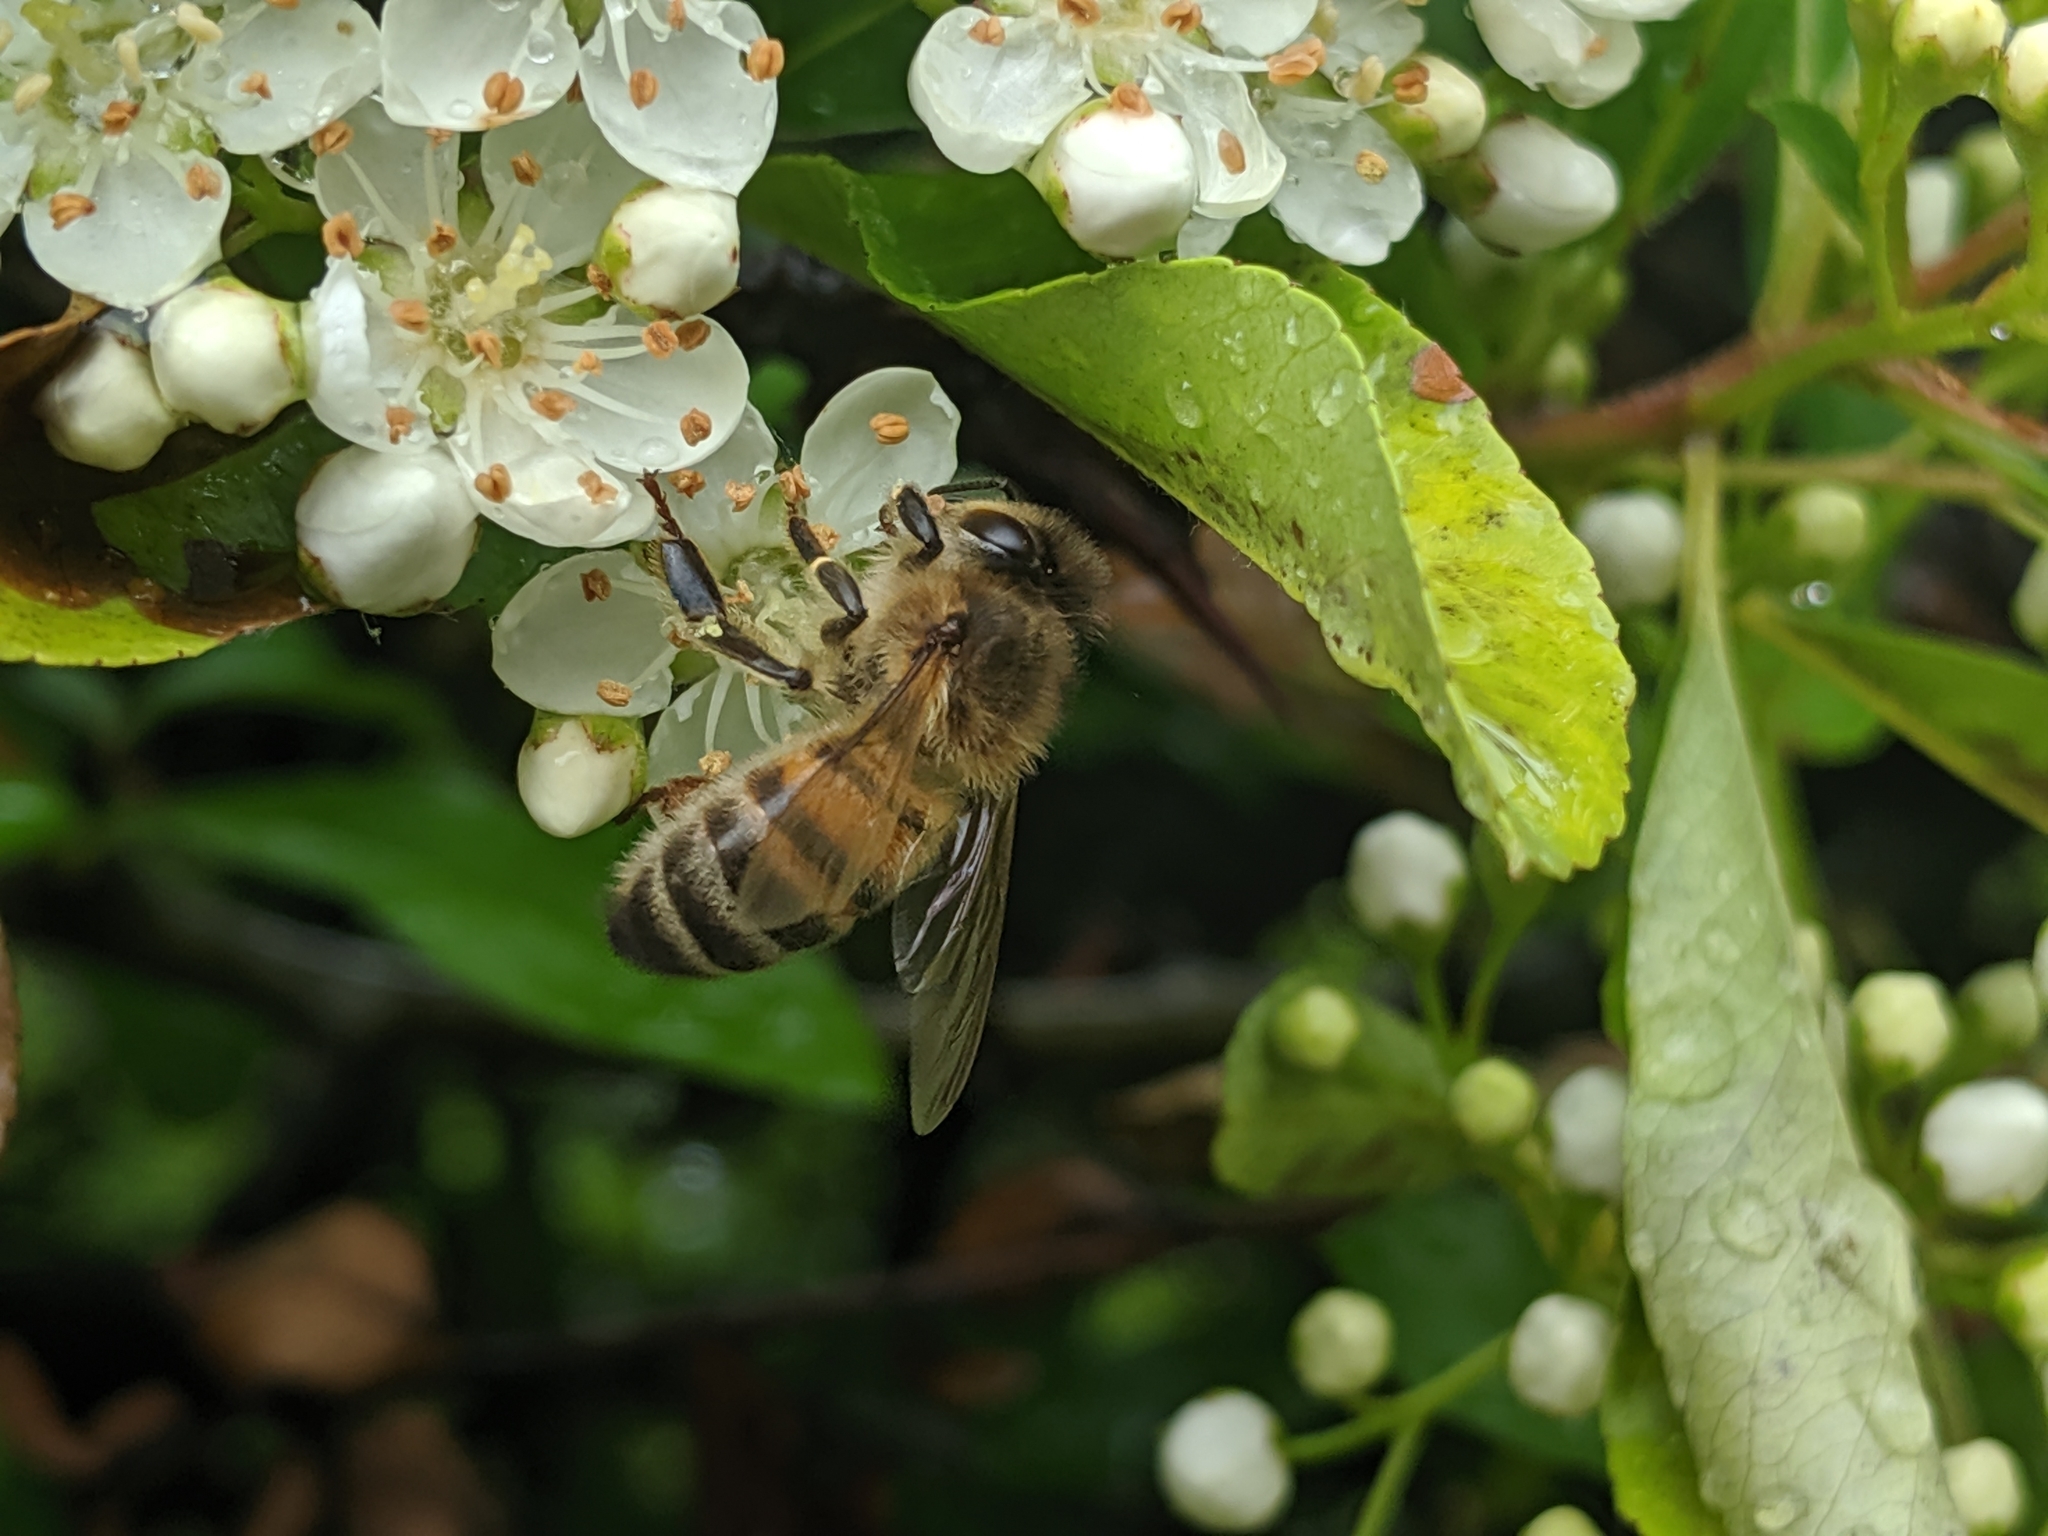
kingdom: Animalia
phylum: Arthropoda
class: Insecta
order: Hymenoptera
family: Apidae
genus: Apis
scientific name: Apis mellifera
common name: Honey bee
